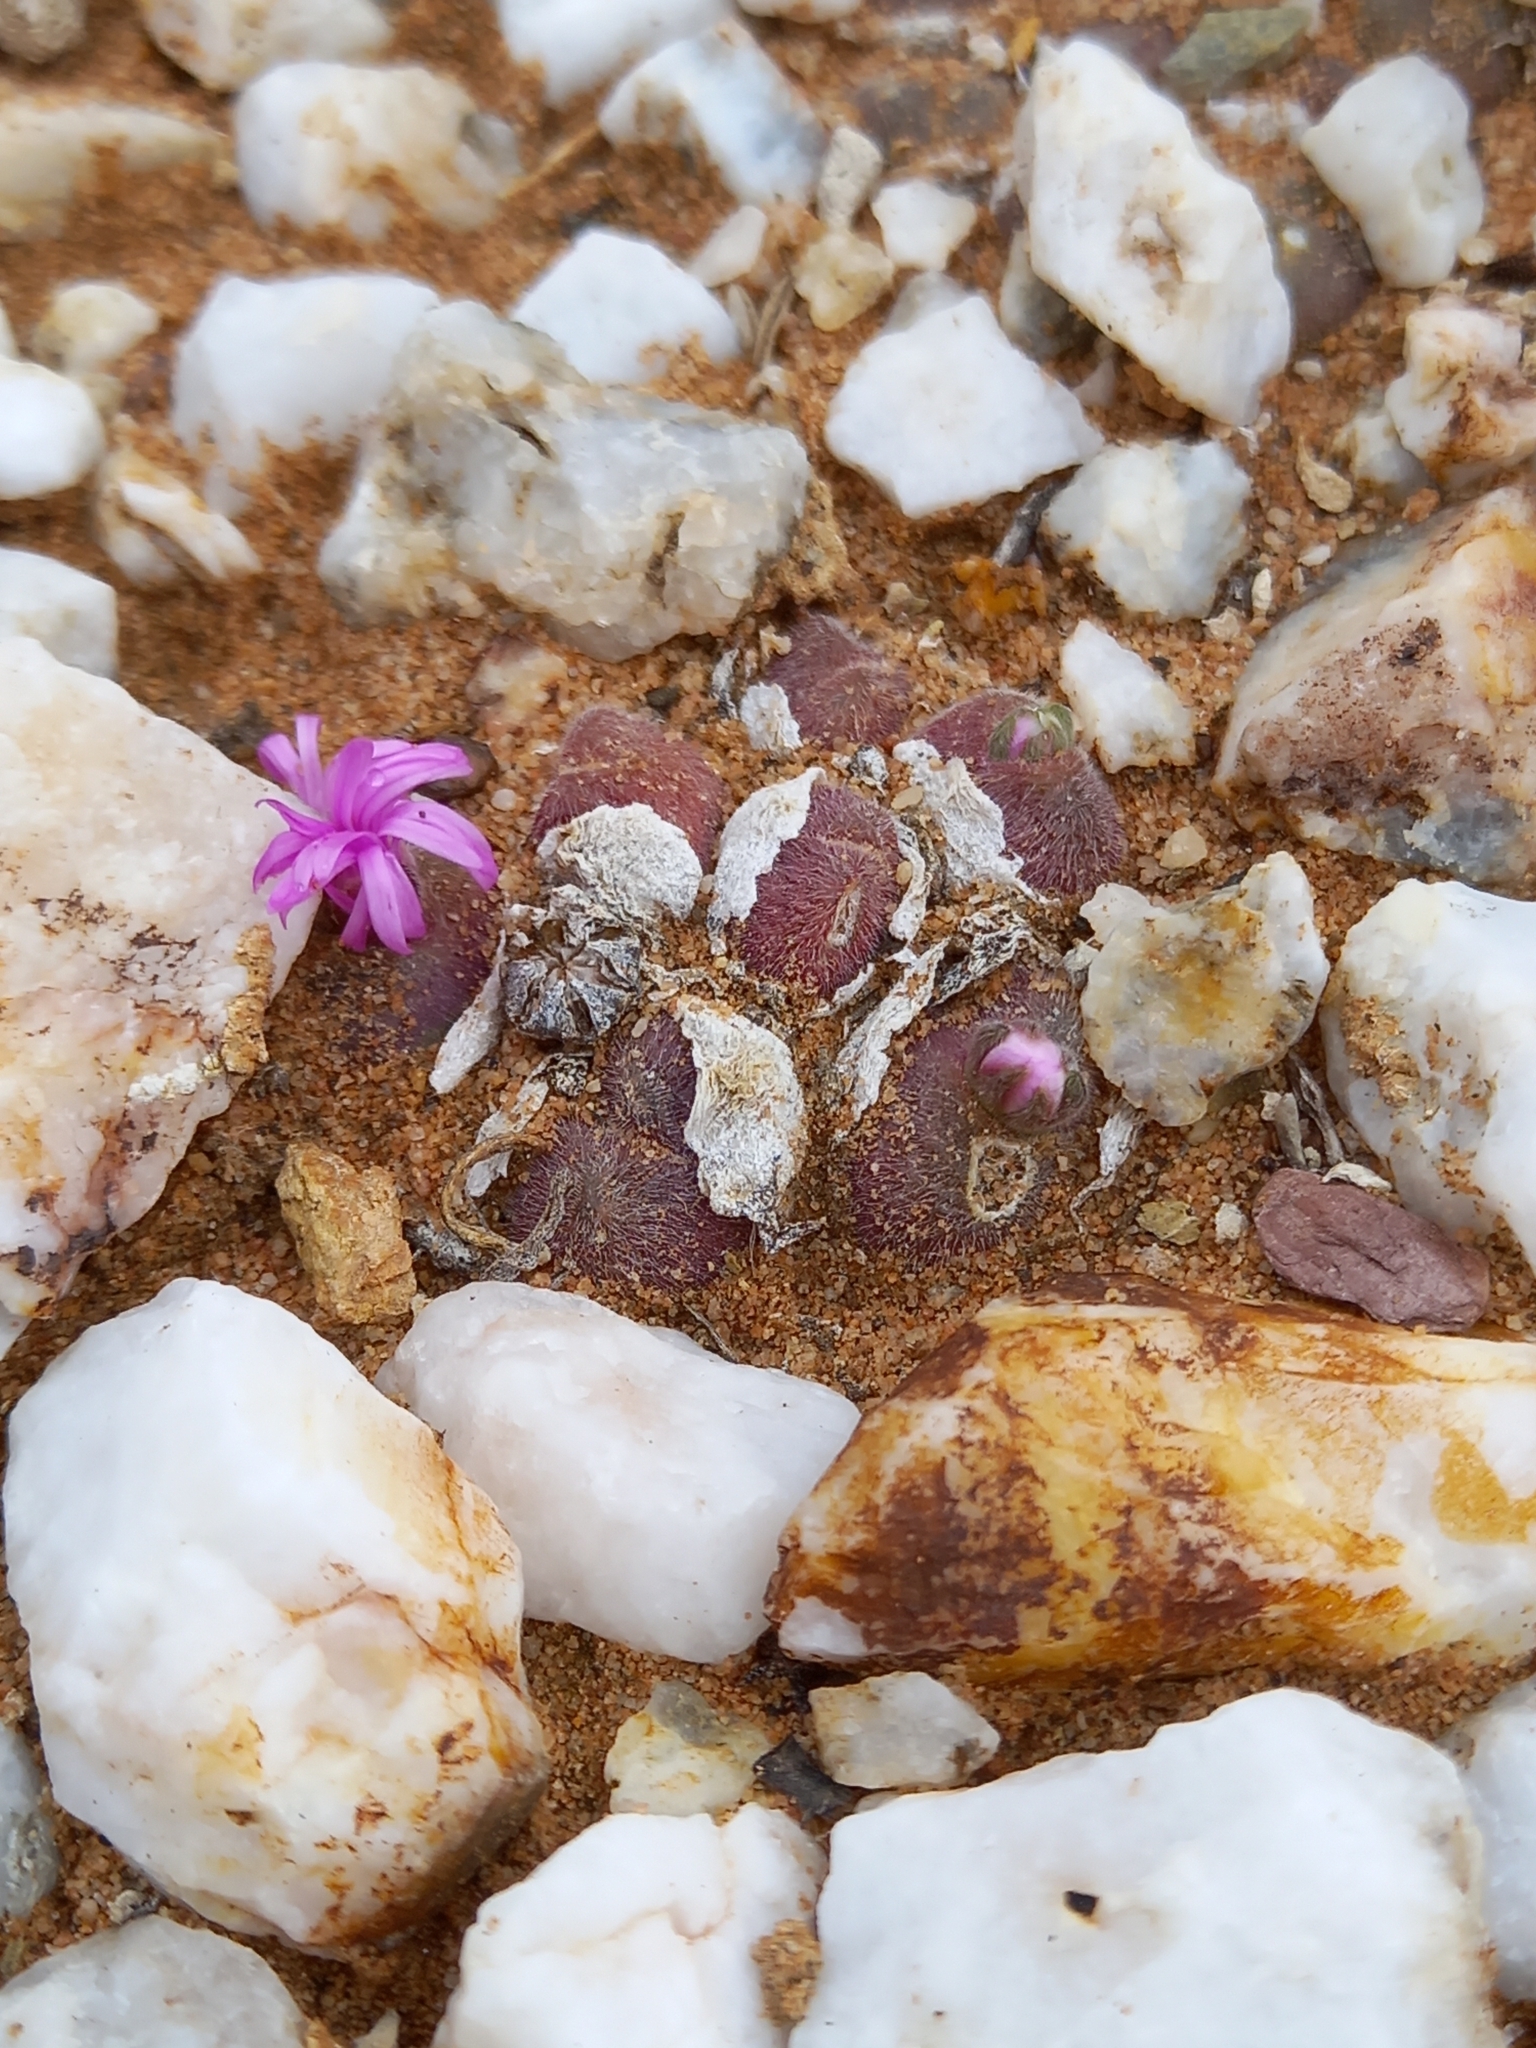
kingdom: Plantae
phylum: Tracheophyta
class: Magnoliopsida
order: Caryophyllales
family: Aizoaceae
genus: Gibbaeum
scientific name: Gibbaeum pilosulum
